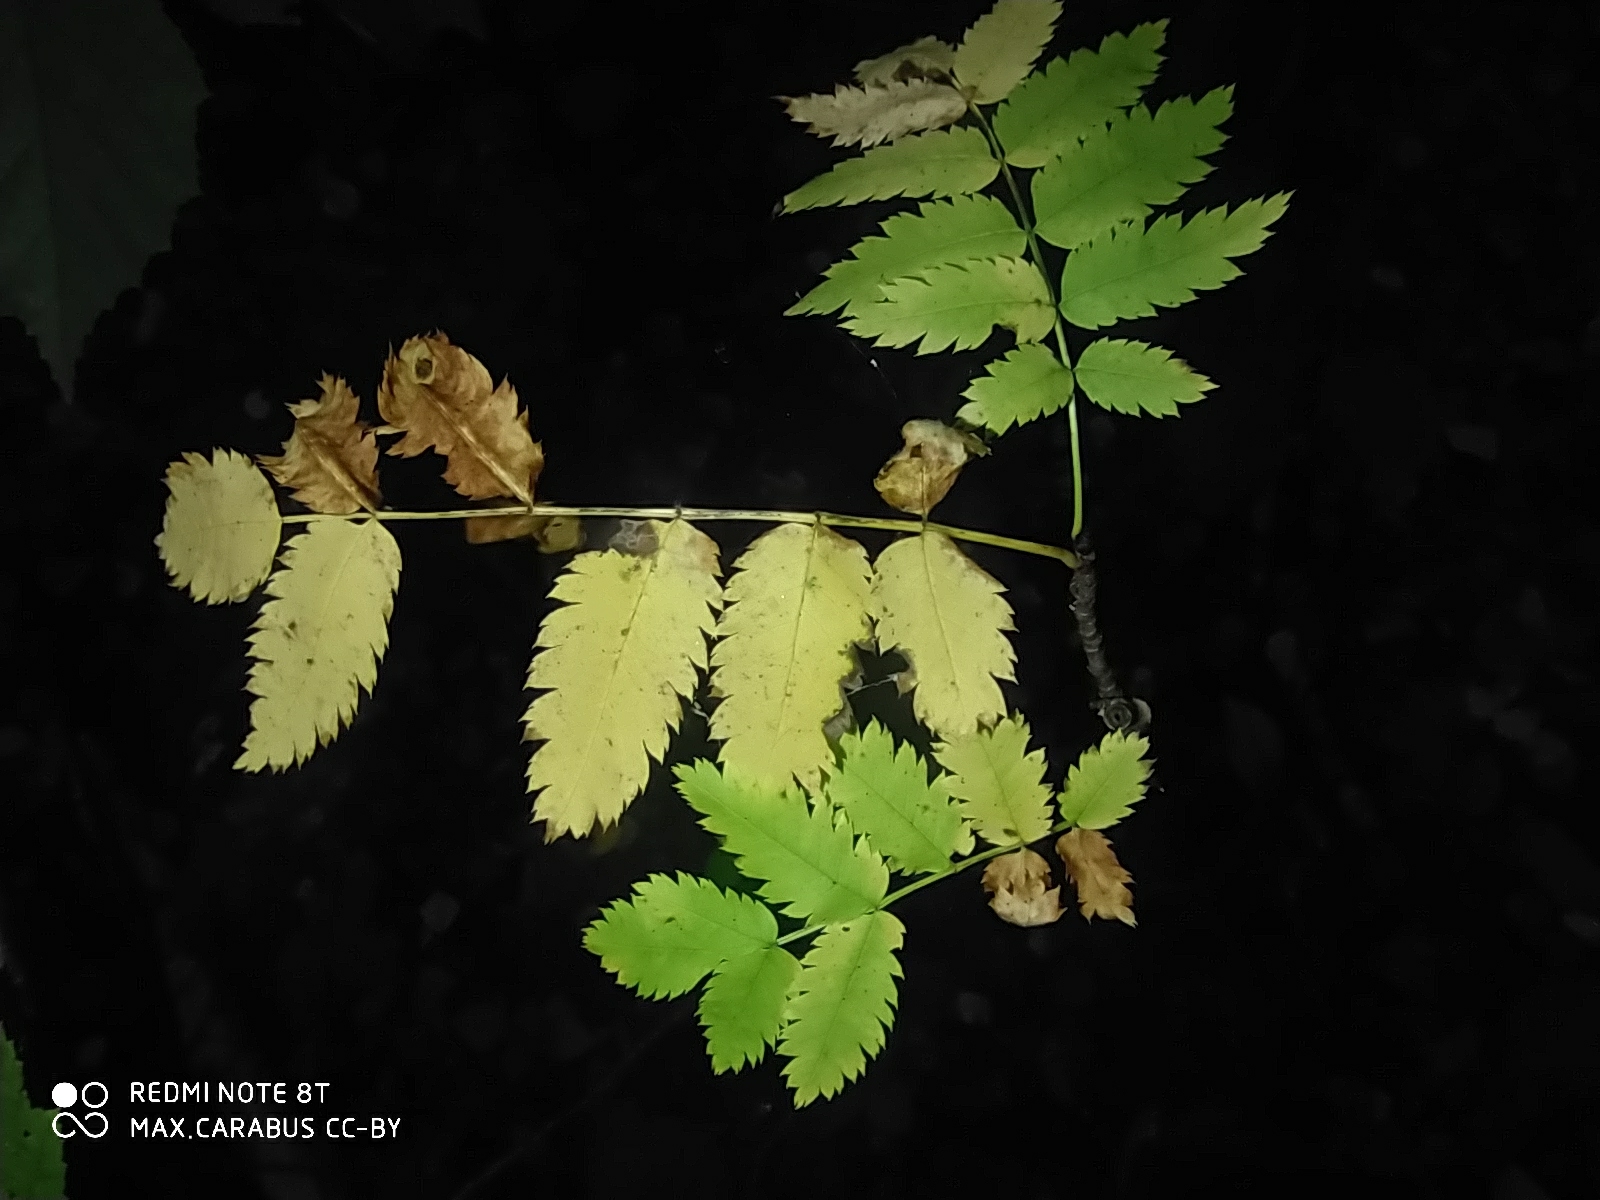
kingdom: Plantae
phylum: Tracheophyta
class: Magnoliopsida
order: Rosales
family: Rosaceae
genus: Sorbus
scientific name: Sorbus aucuparia
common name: Rowan
